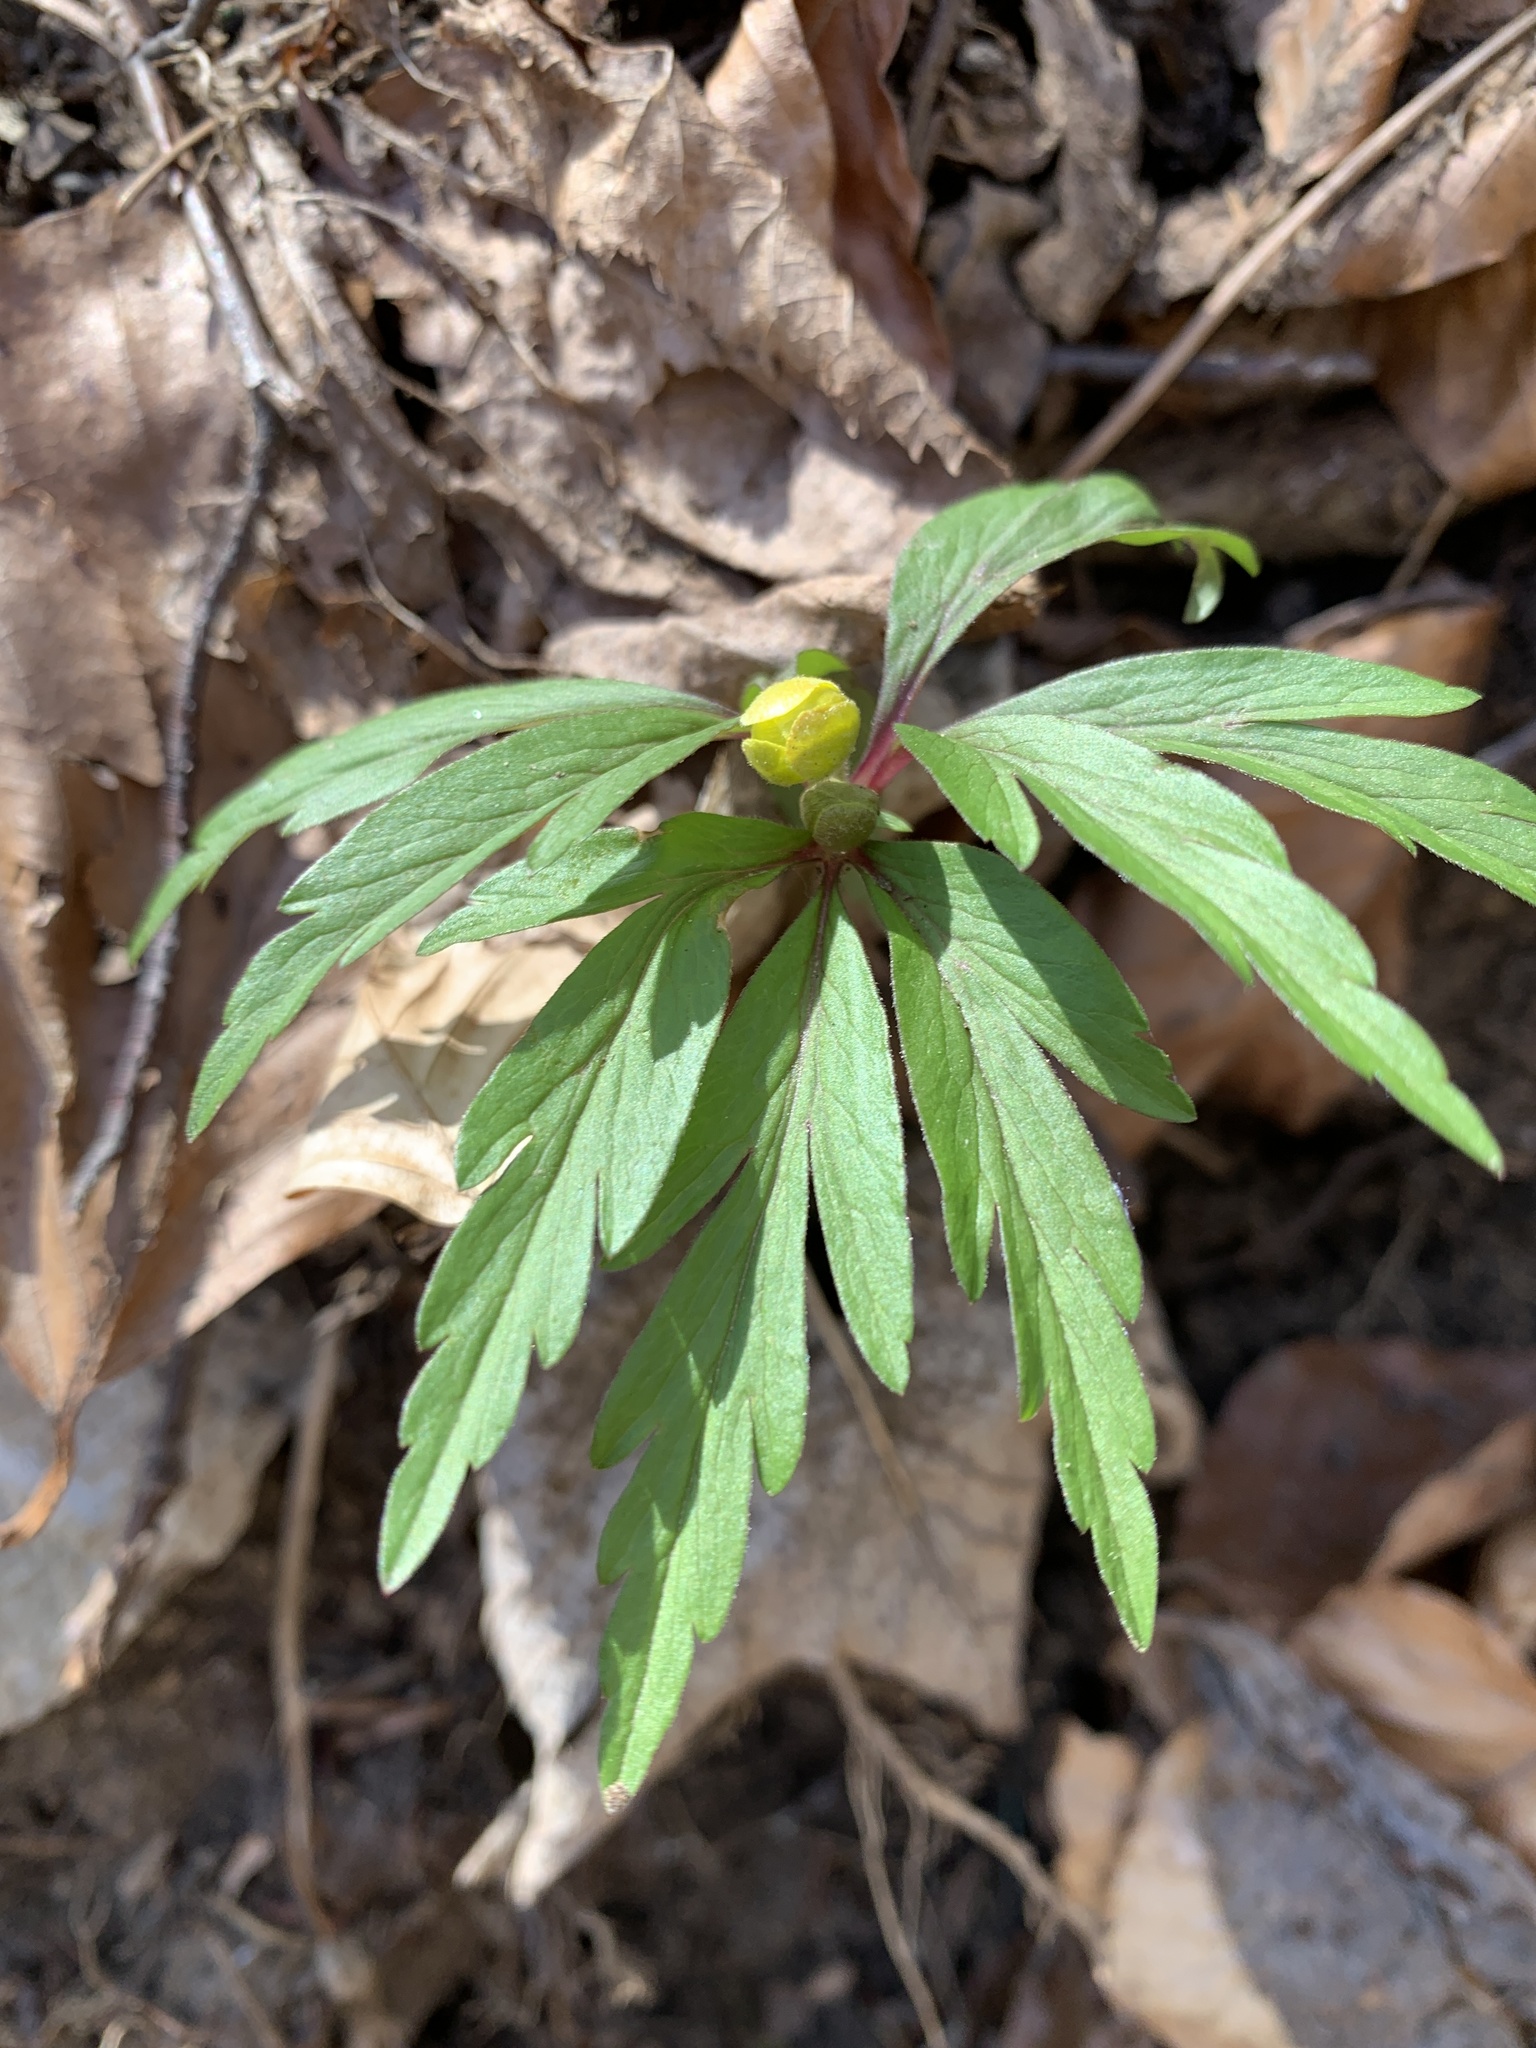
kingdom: Plantae
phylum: Tracheophyta
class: Magnoliopsida
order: Ranunculales
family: Ranunculaceae
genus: Anemone
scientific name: Anemone ranunculoides
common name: Yellow anemone
